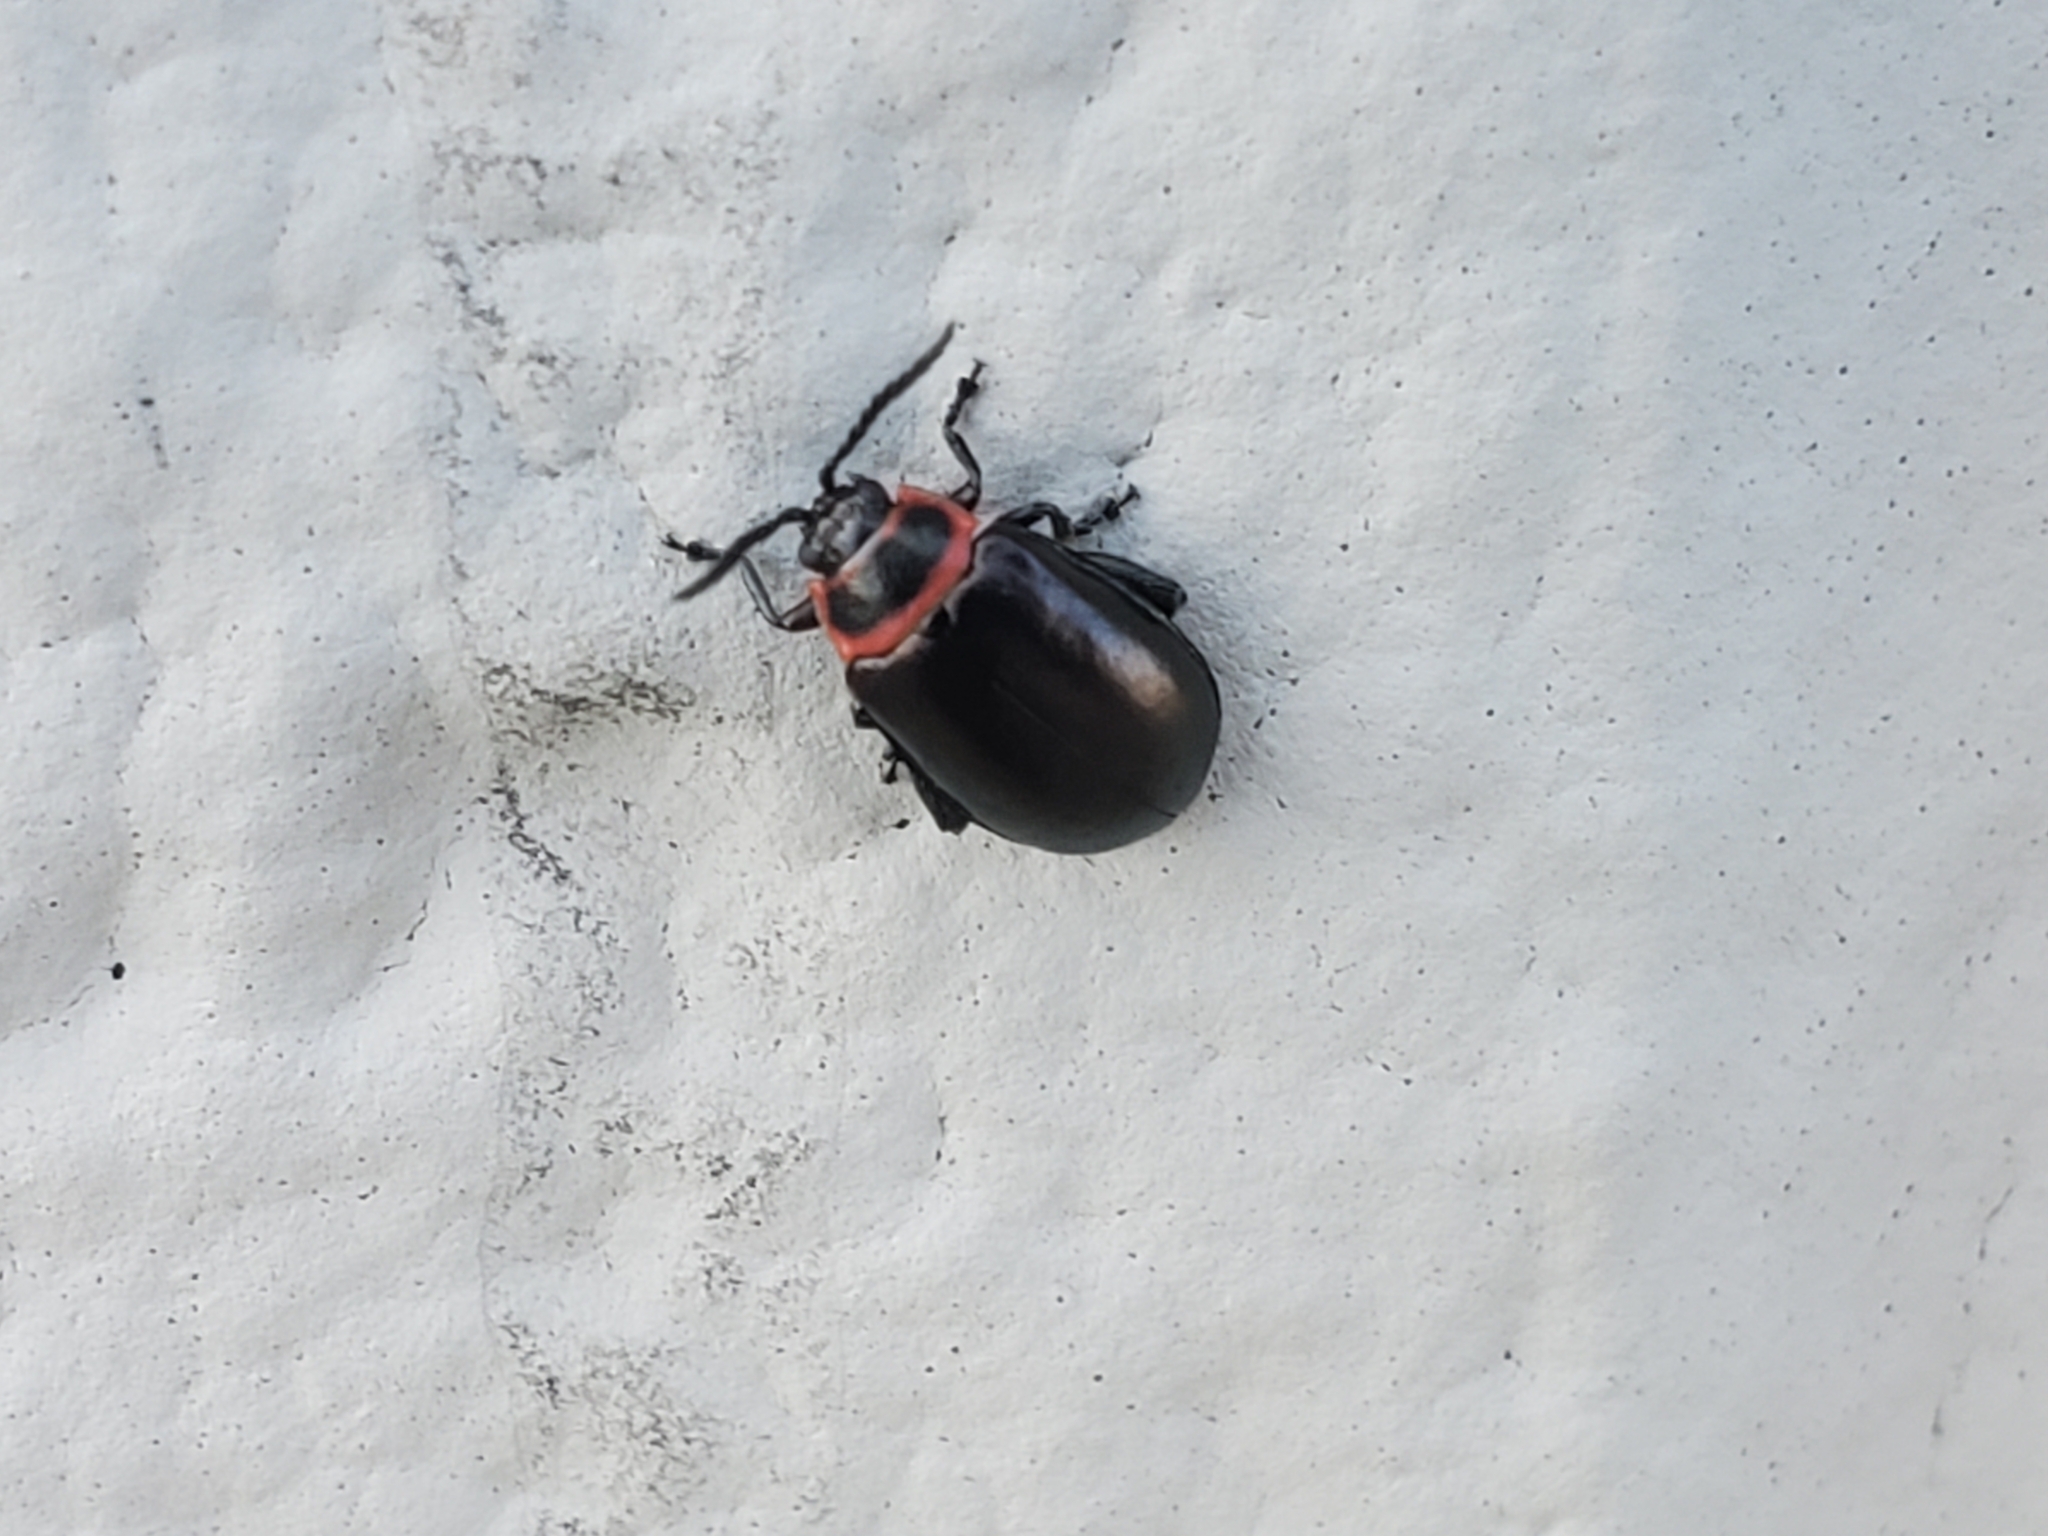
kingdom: Animalia
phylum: Arthropoda
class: Insecta
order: Coleoptera
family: Chrysomelidae
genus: Kuschelina
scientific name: Kuschelina vians
